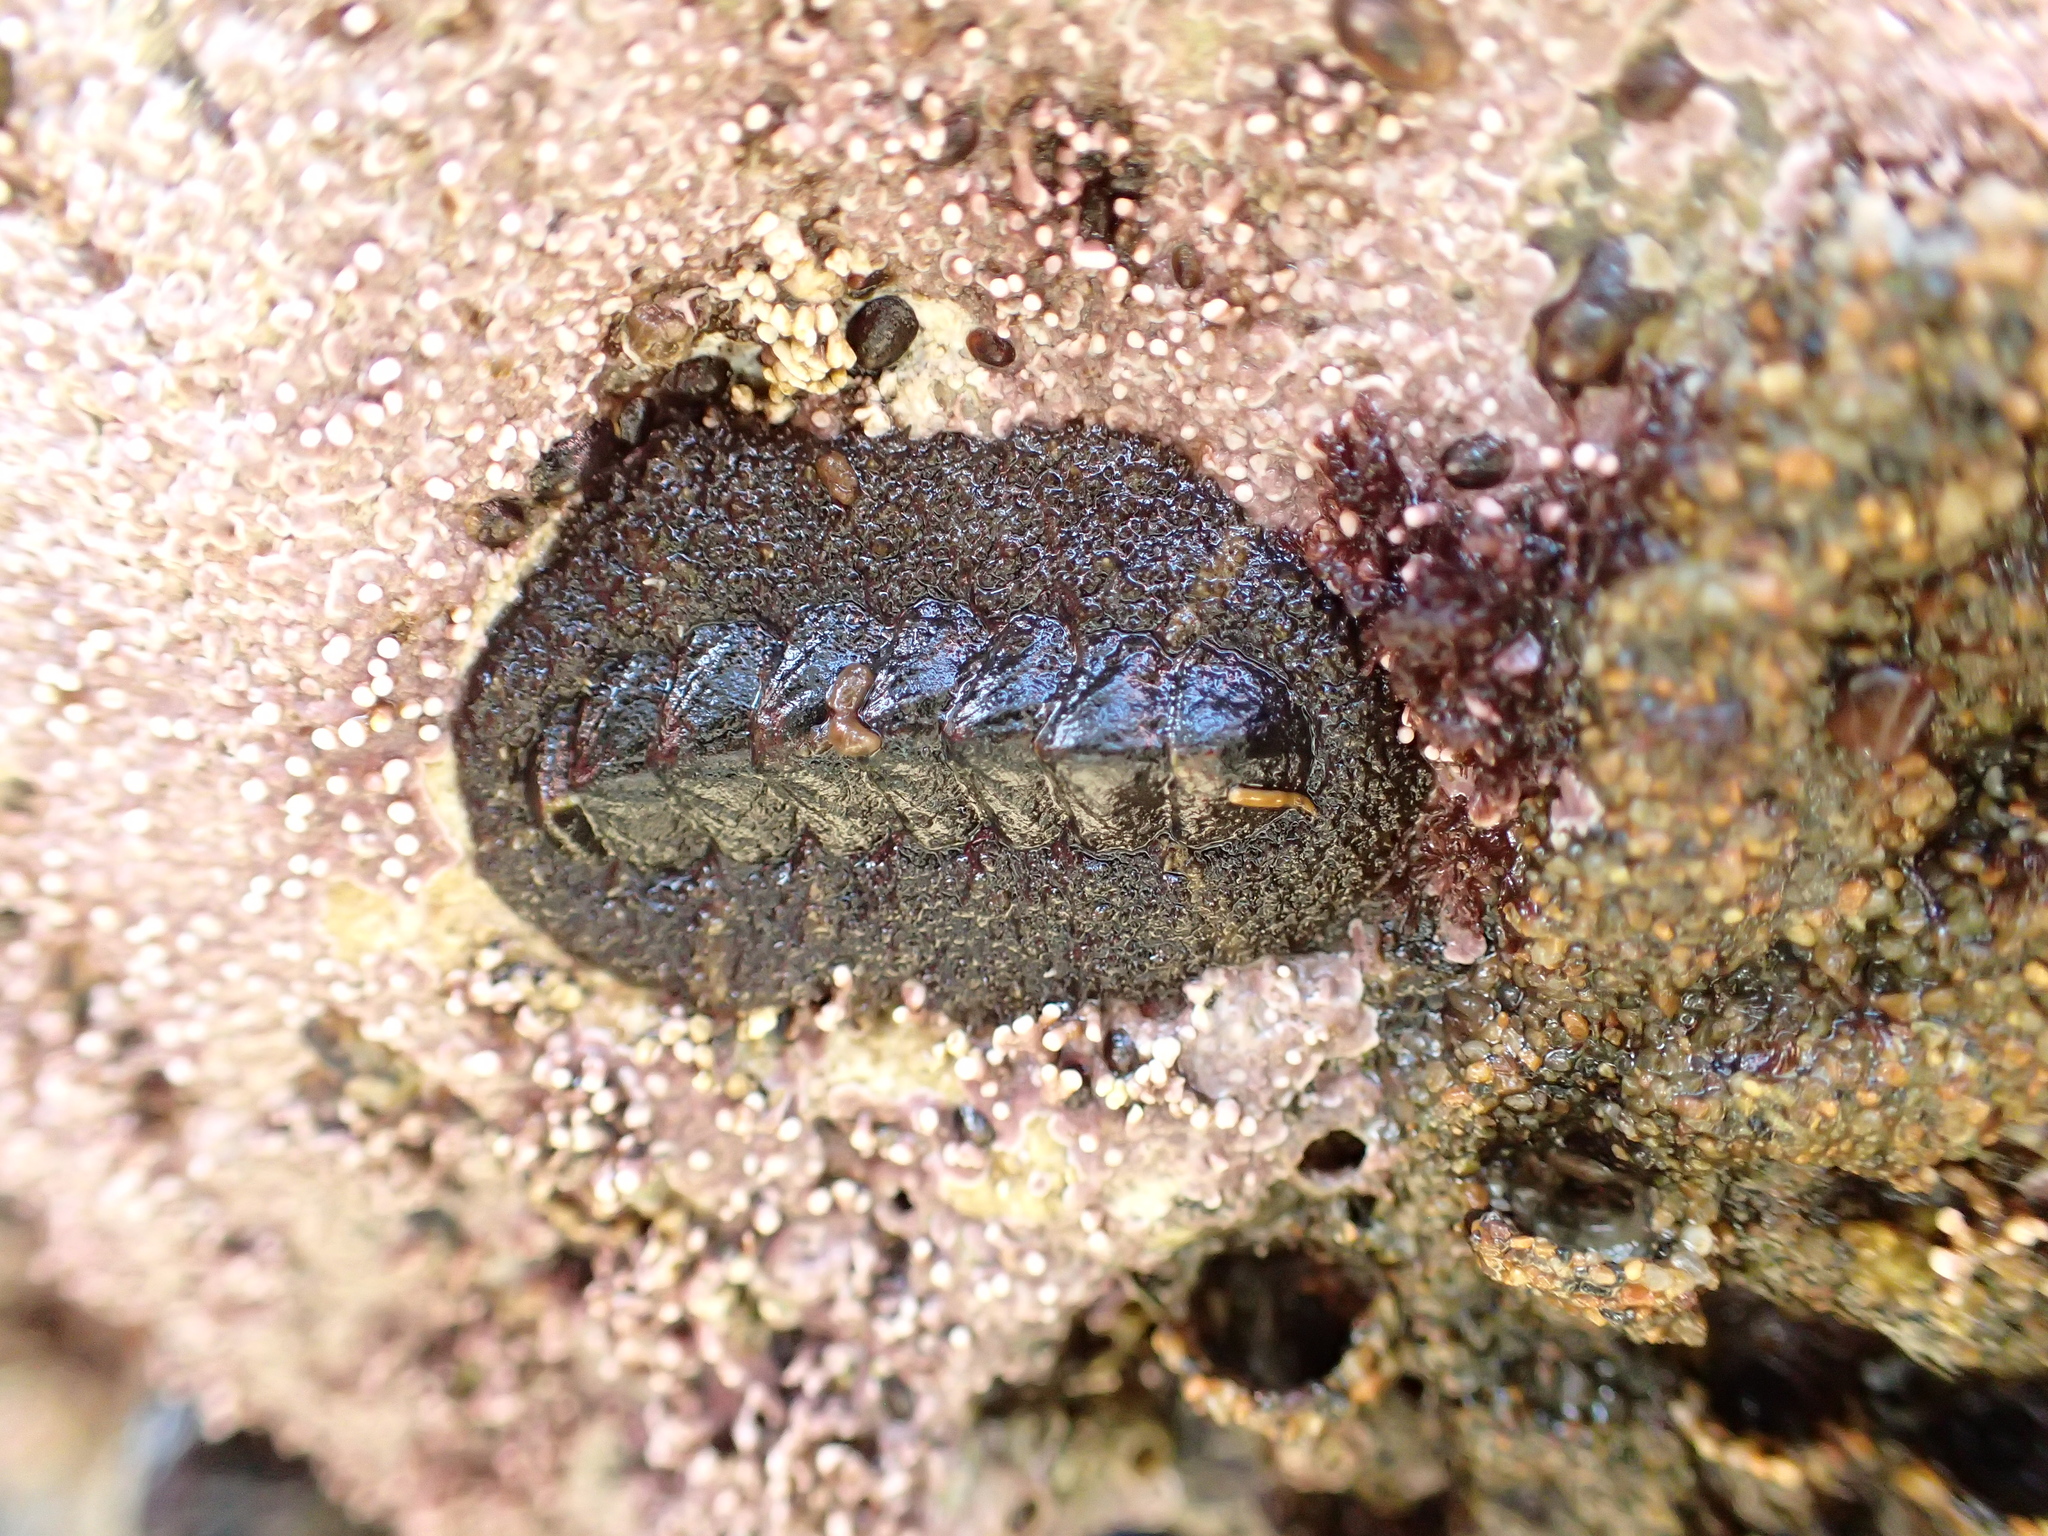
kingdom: Animalia
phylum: Mollusca
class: Polyplacophora
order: Chitonida
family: Tonicellidae
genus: Nuttallina
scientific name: Nuttallina californica
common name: California nuttall chiton
